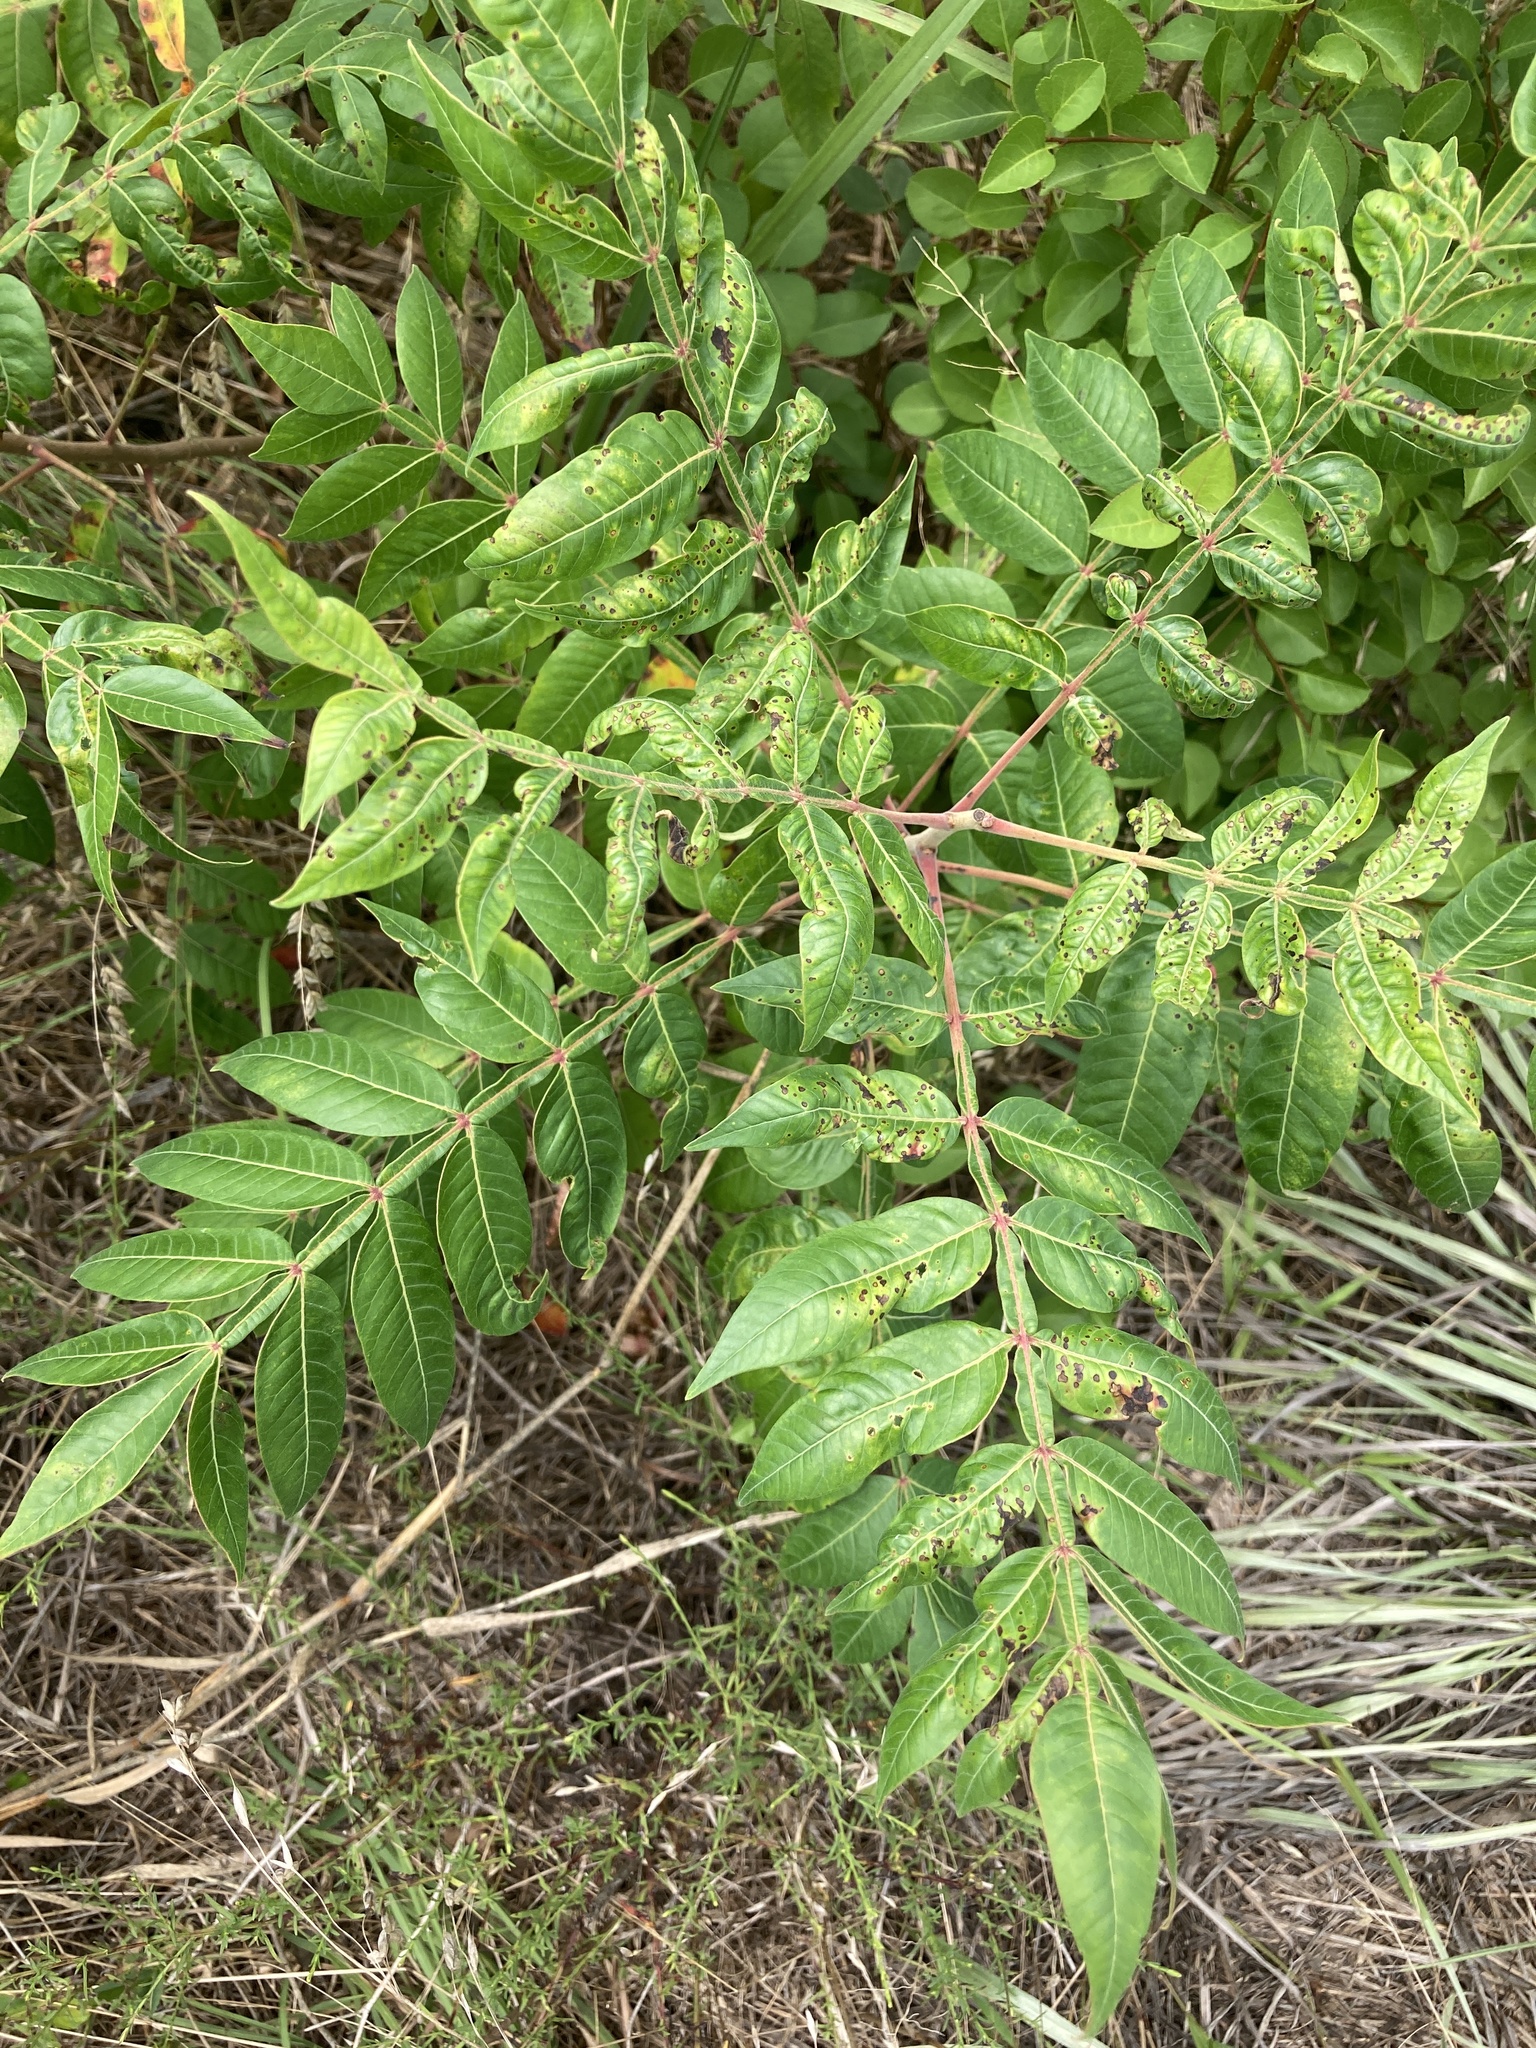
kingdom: Plantae
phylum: Tracheophyta
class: Magnoliopsida
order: Sapindales
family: Anacardiaceae
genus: Rhus
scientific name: Rhus copallina
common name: Shining sumac
